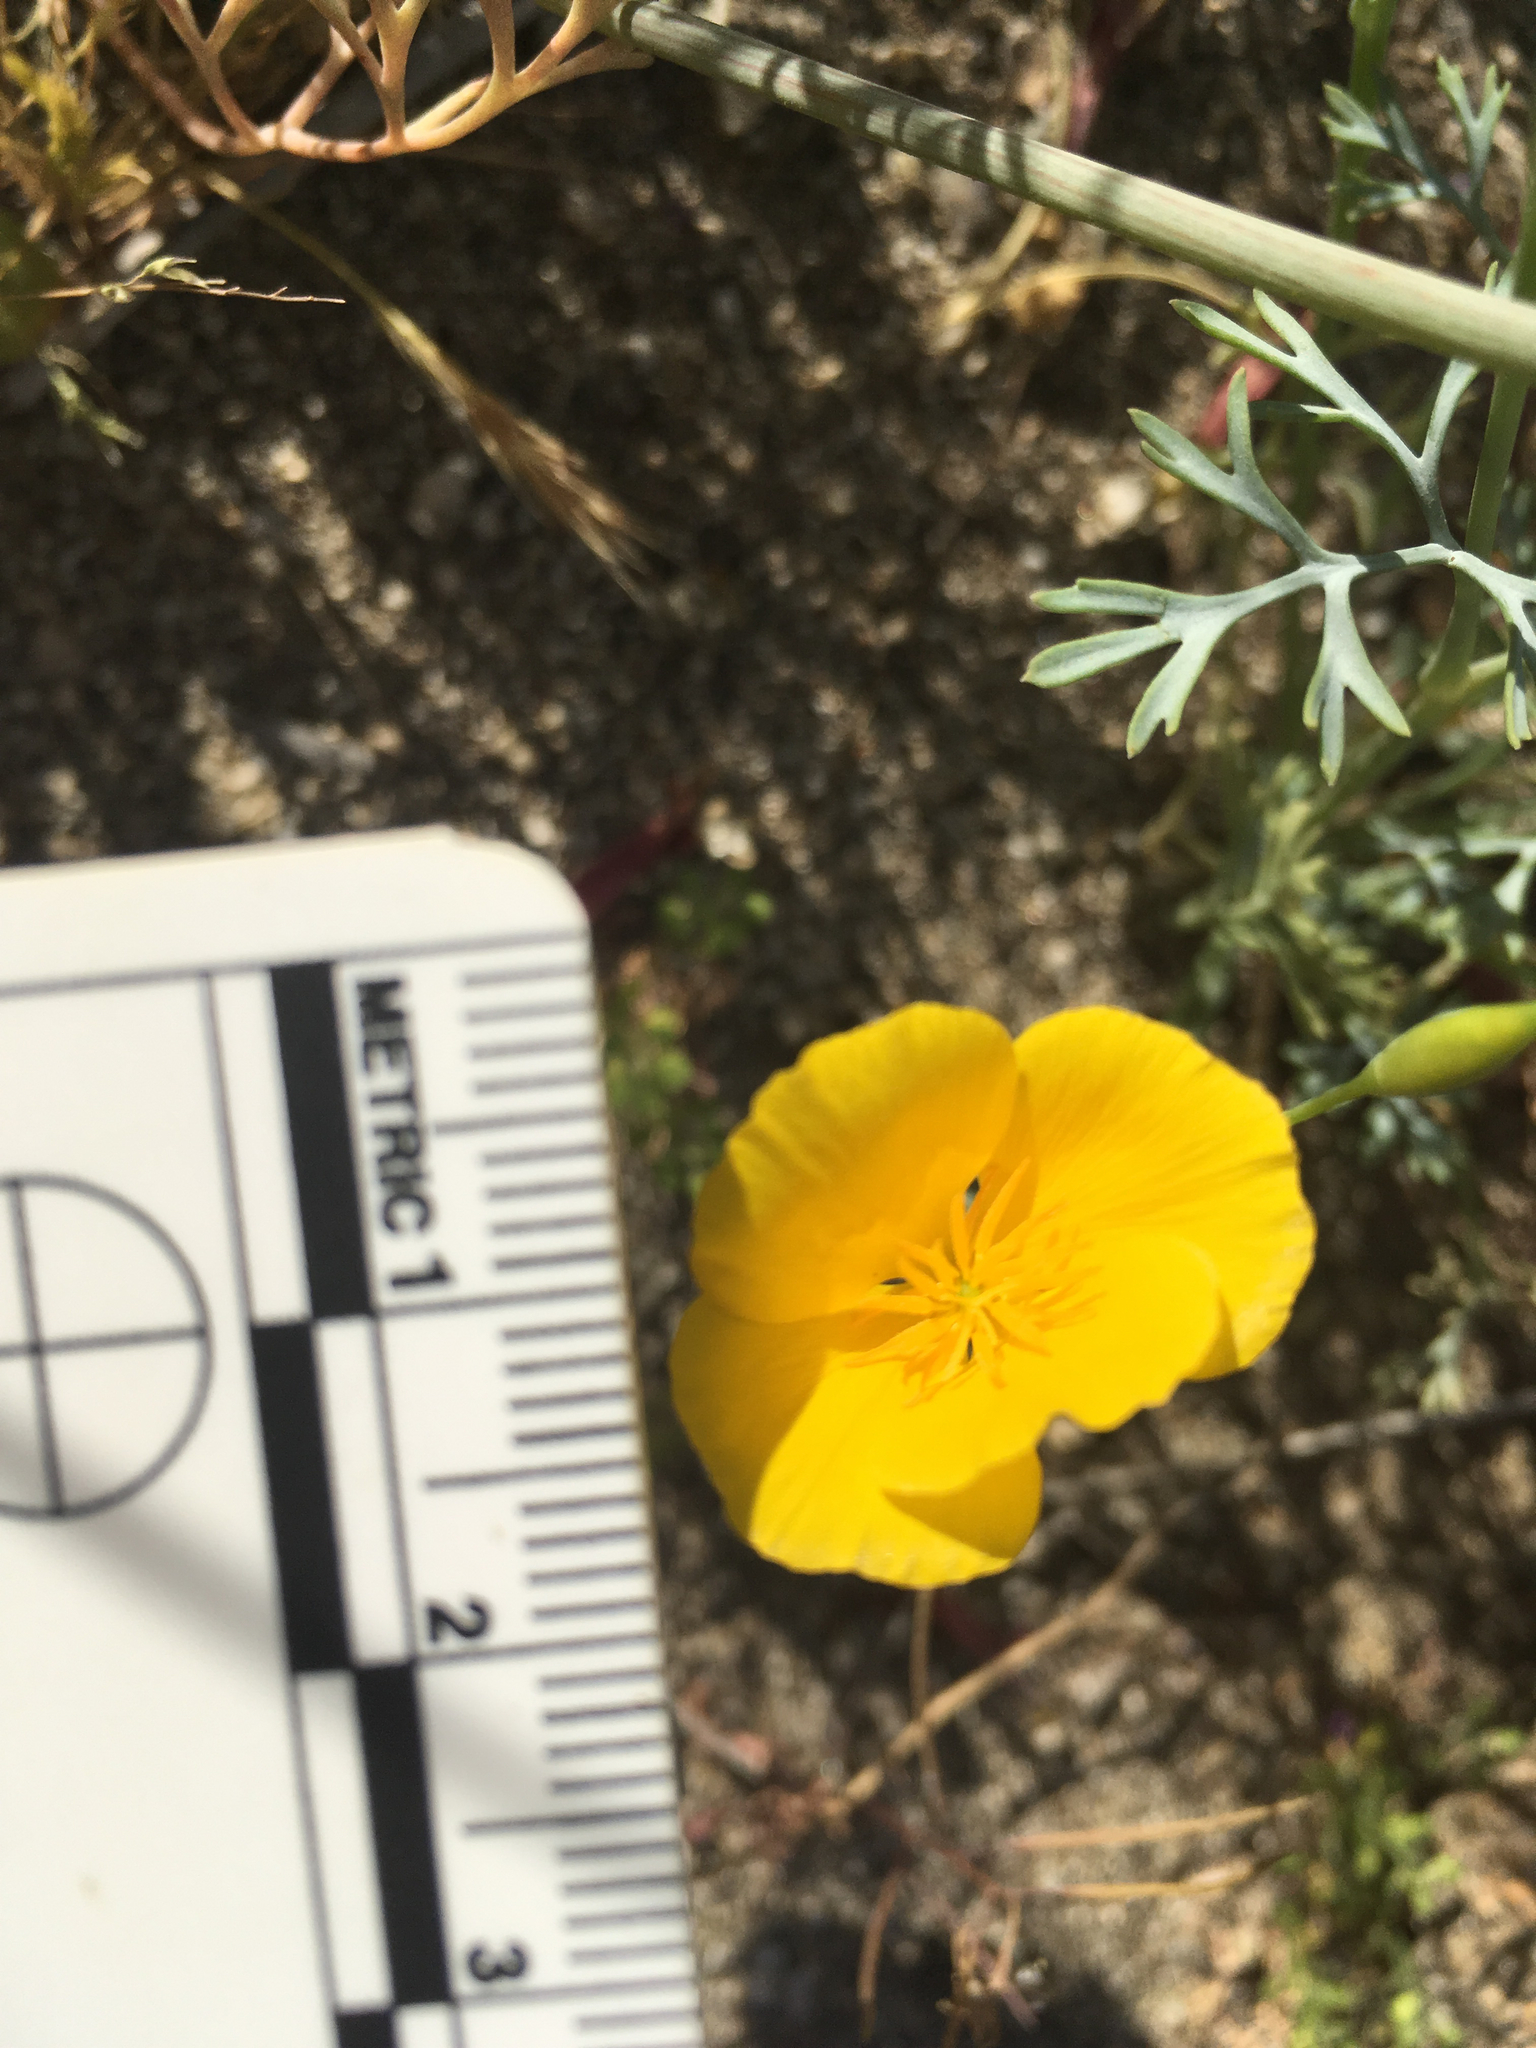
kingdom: Plantae
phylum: Tracheophyta
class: Magnoliopsida
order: Ranunculales
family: Papaveraceae
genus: Eschscholzia
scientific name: Eschscholzia parishii
